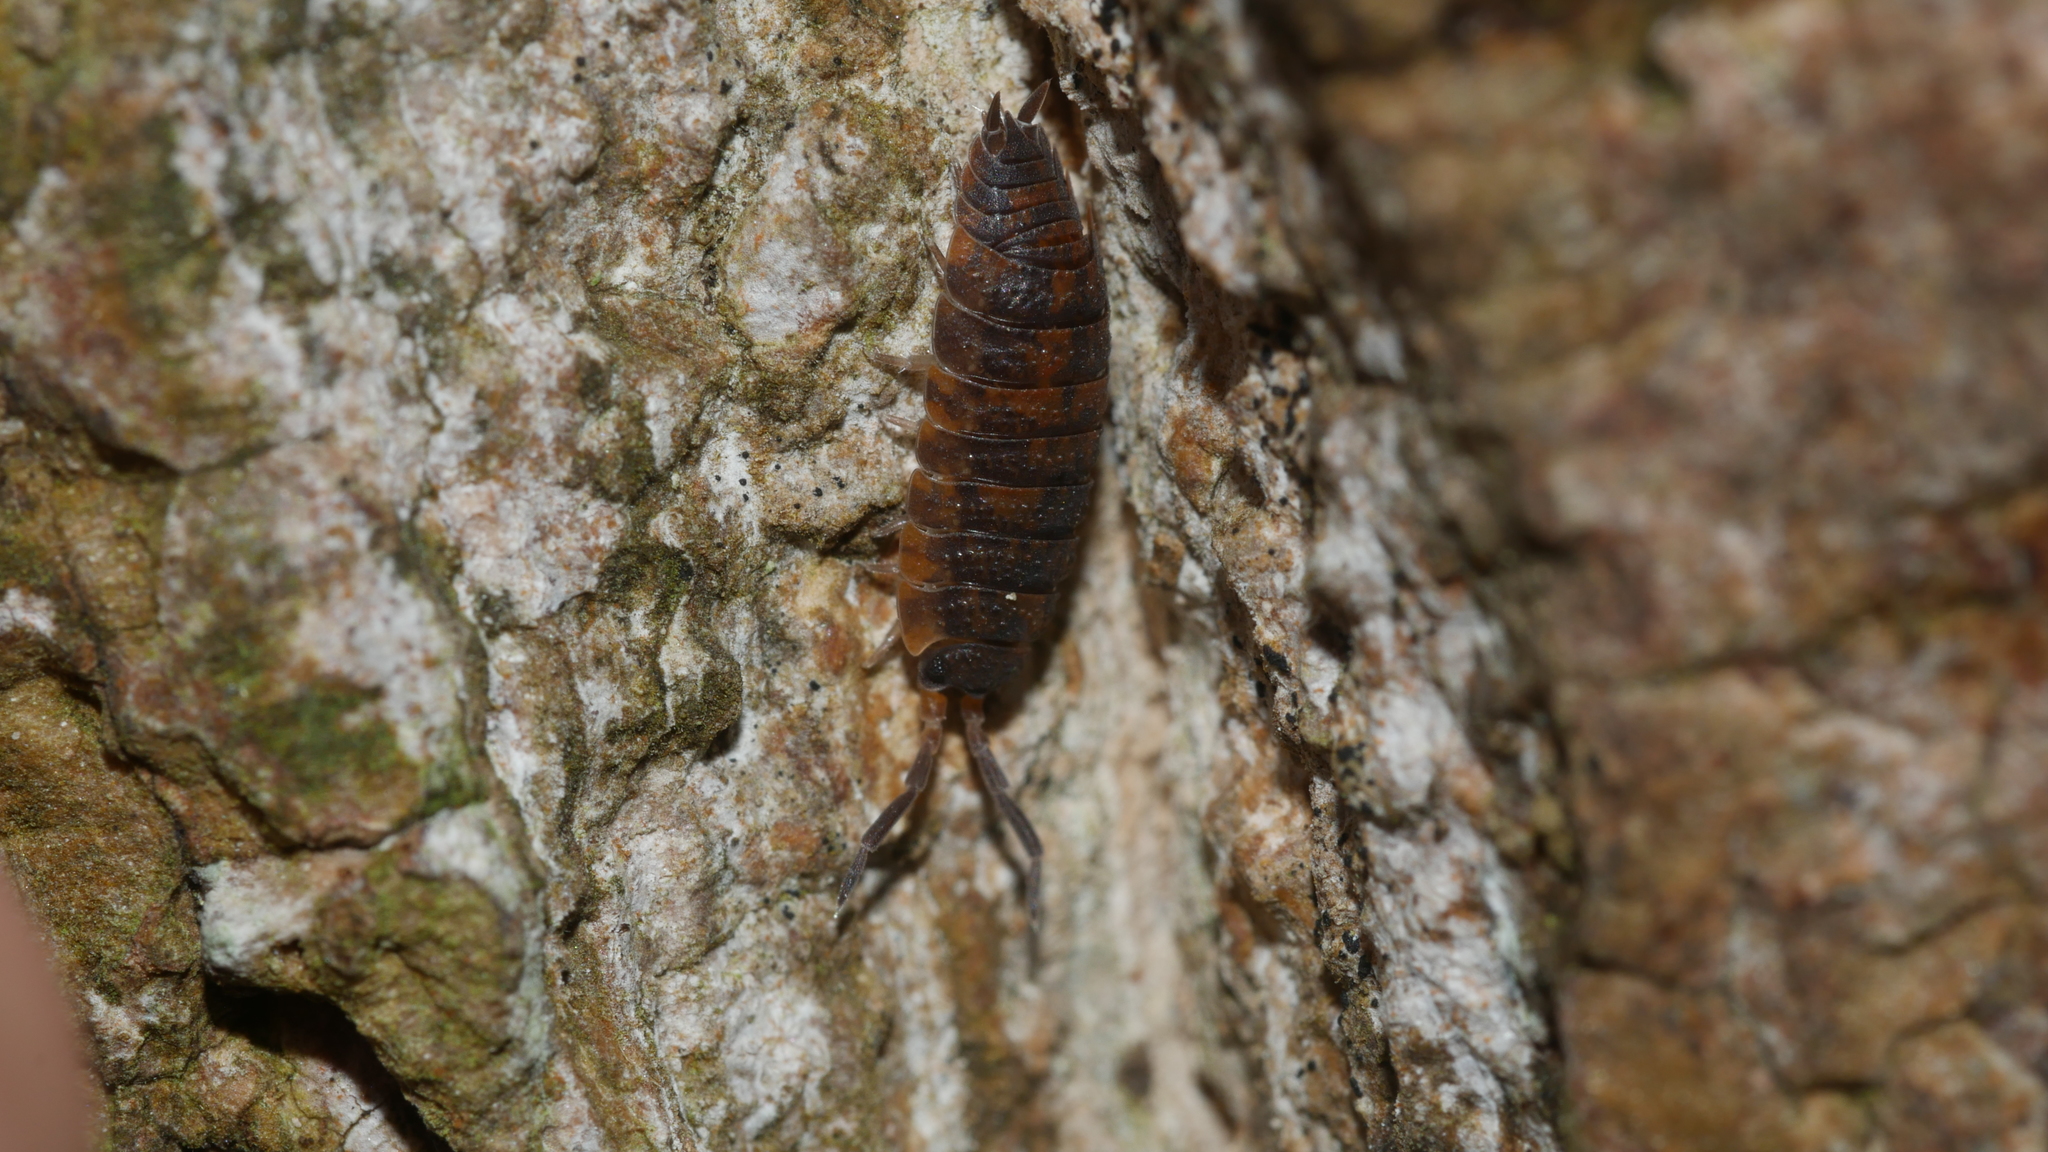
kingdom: Animalia
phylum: Arthropoda
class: Malacostraca
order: Isopoda
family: Porcellionidae
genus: Porcellio
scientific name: Porcellio scaber
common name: Common rough woodlouse
